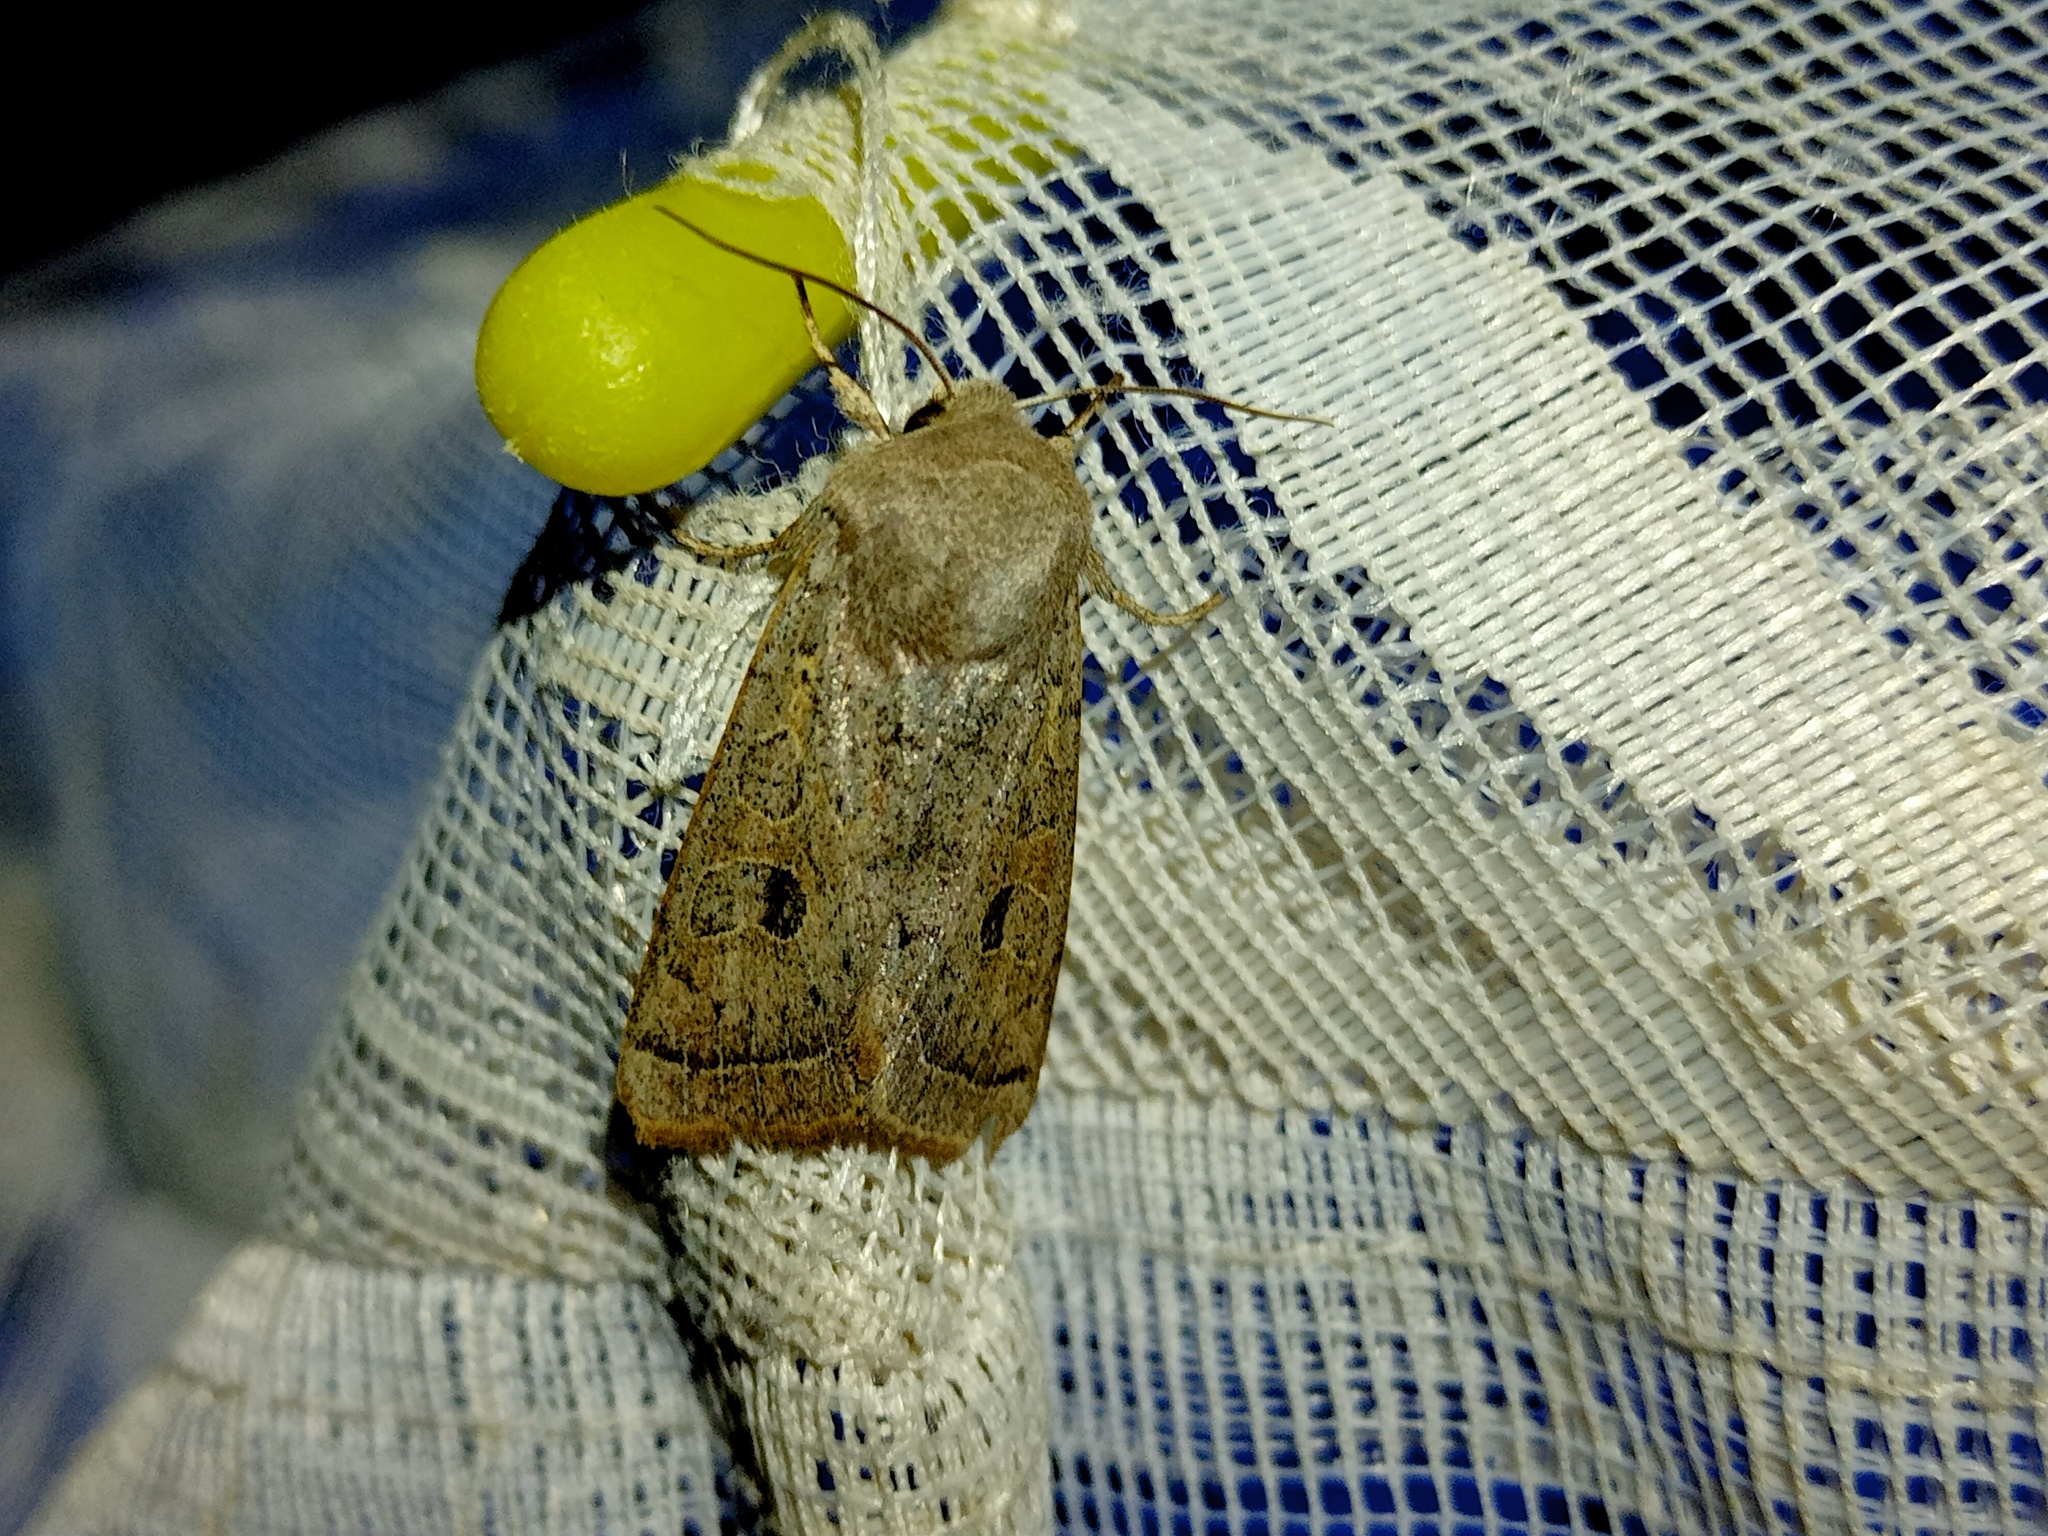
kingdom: Animalia
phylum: Arthropoda
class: Insecta
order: Lepidoptera
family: Noctuidae
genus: Orthosia
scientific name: Orthosia gracilis
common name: Powdered quaker
